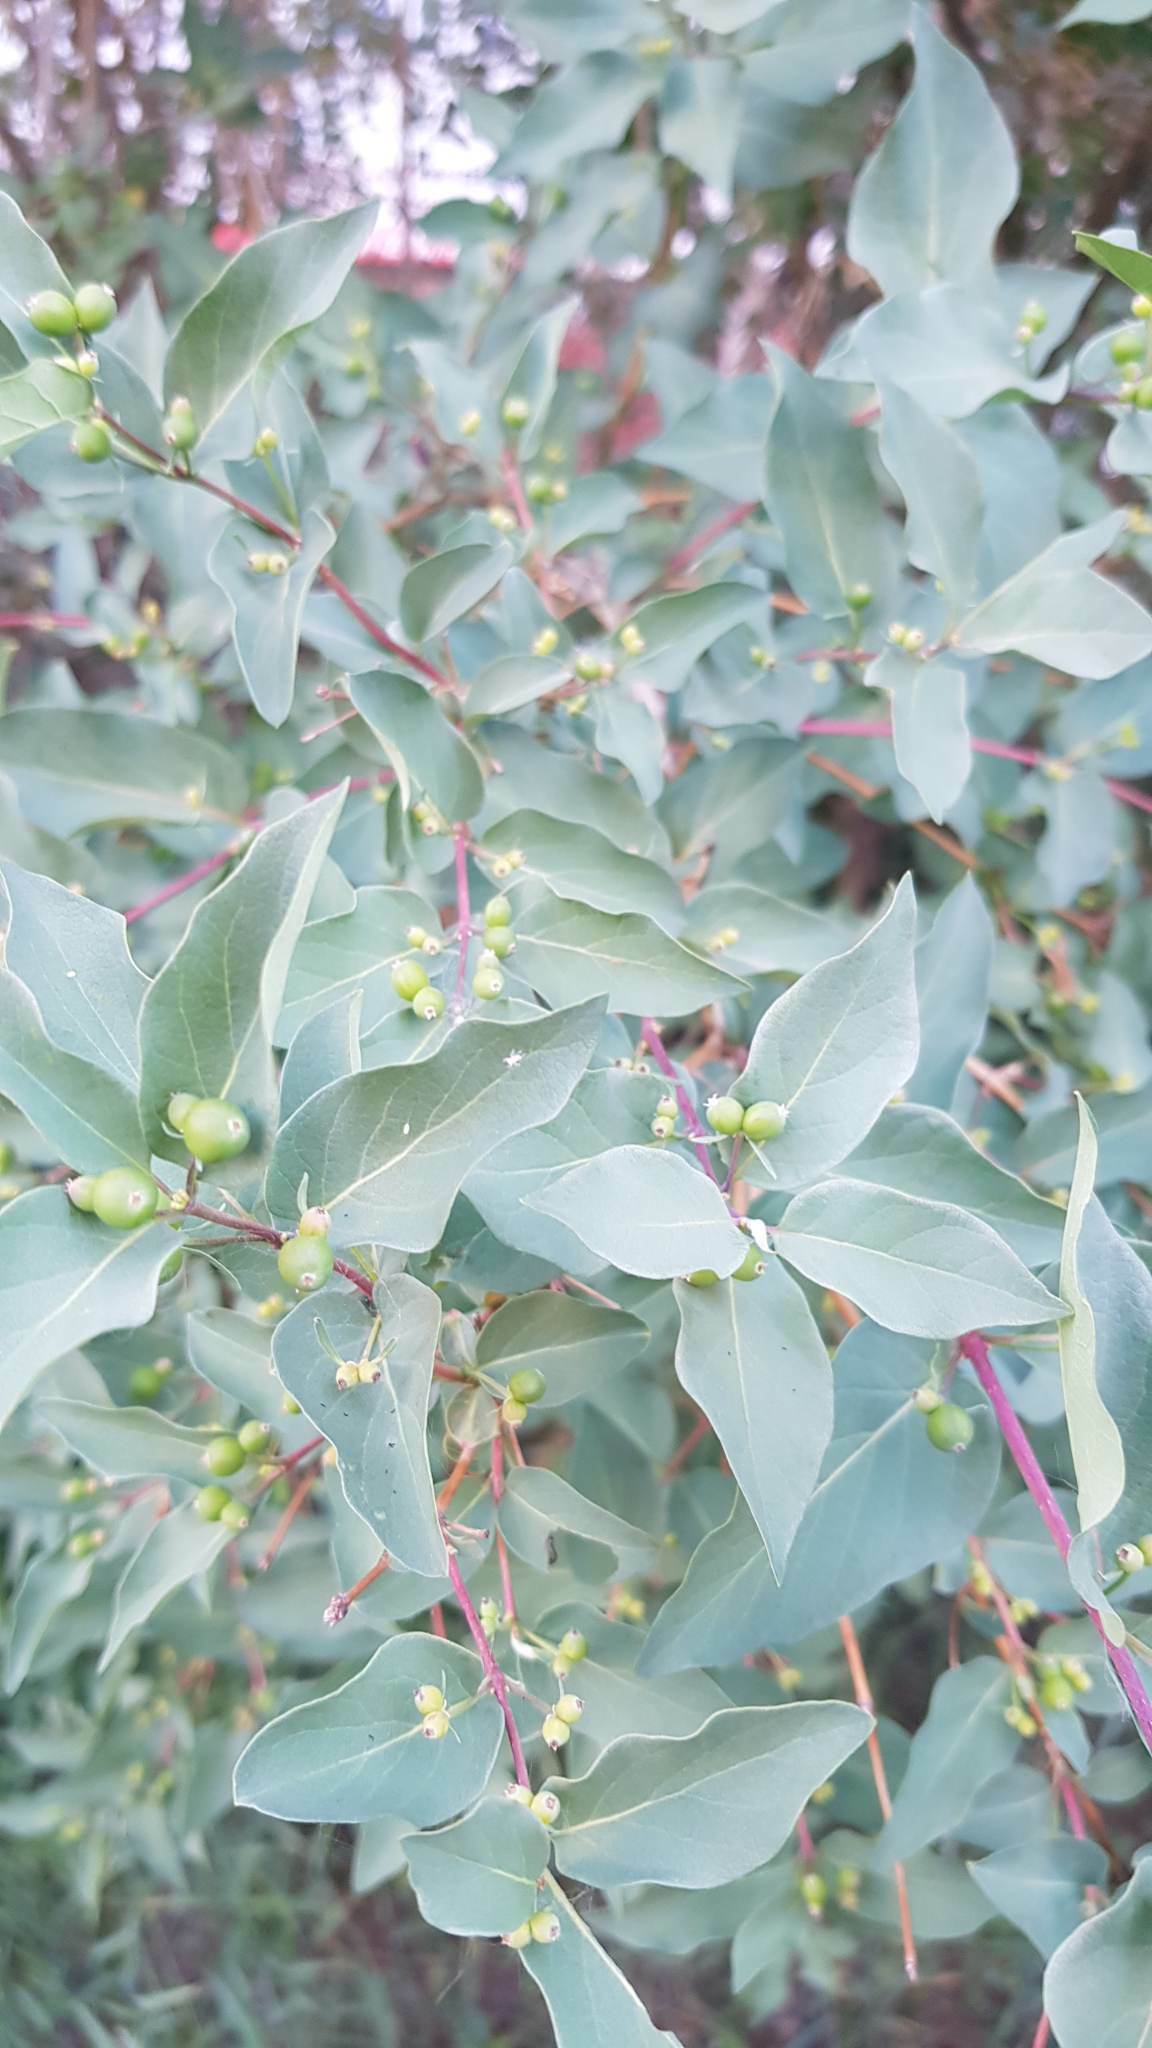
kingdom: Plantae
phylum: Tracheophyta
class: Magnoliopsida
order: Dipsacales
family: Caprifoliaceae
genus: Lonicera
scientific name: Lonicera tatarica
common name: Tatarian honeysuckle
